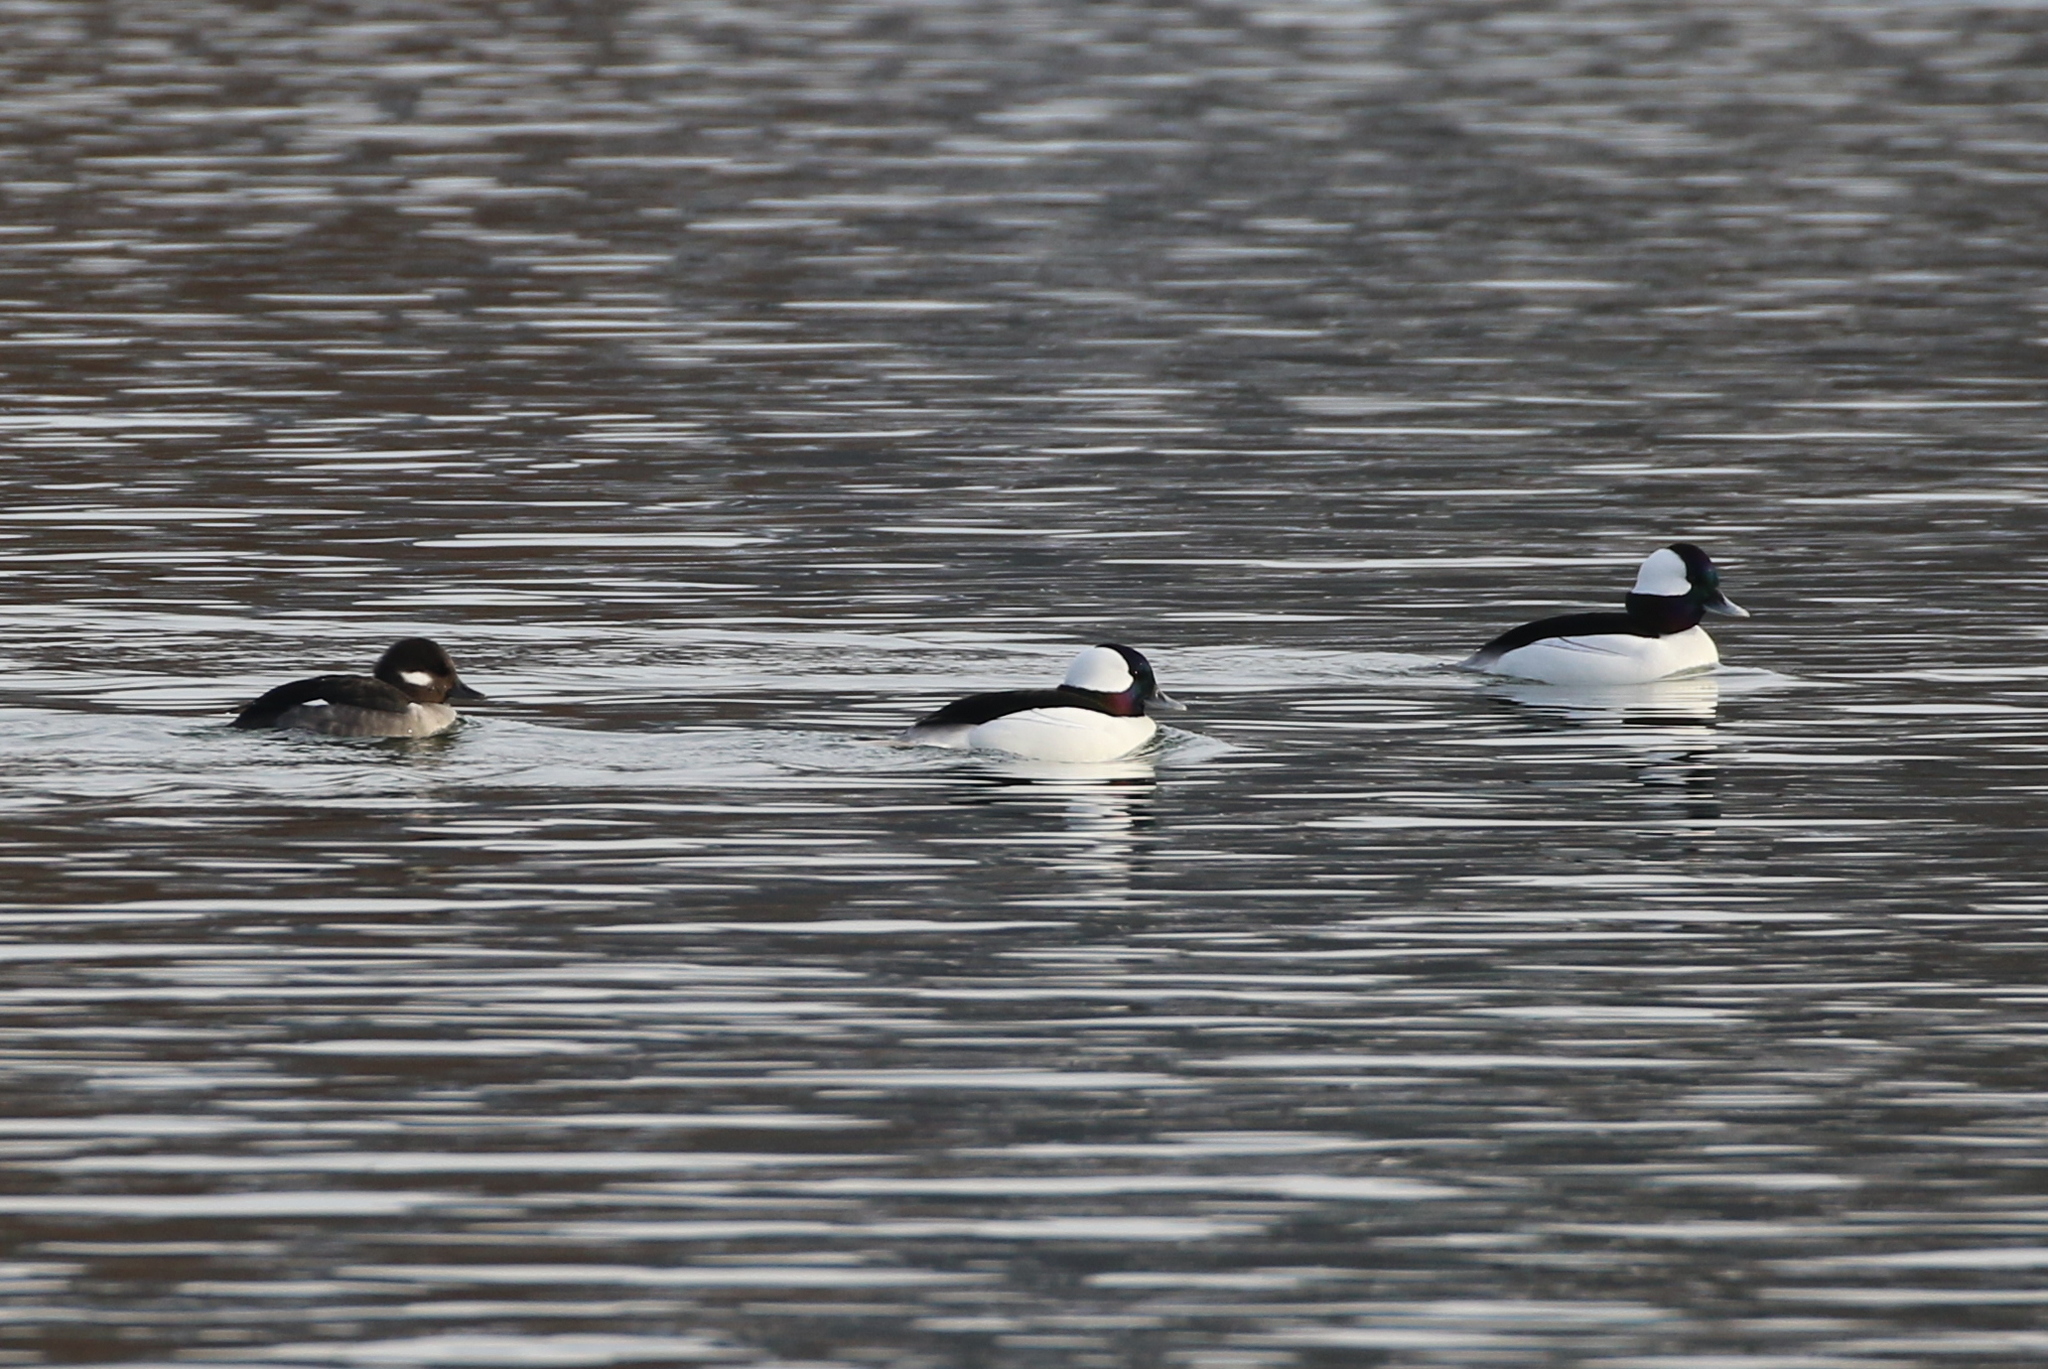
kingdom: Animalia
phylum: Chordata
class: Aves
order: Anseriformes
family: Anatidae
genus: Bucephala
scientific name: Bucephala albeola
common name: Bufflehead
